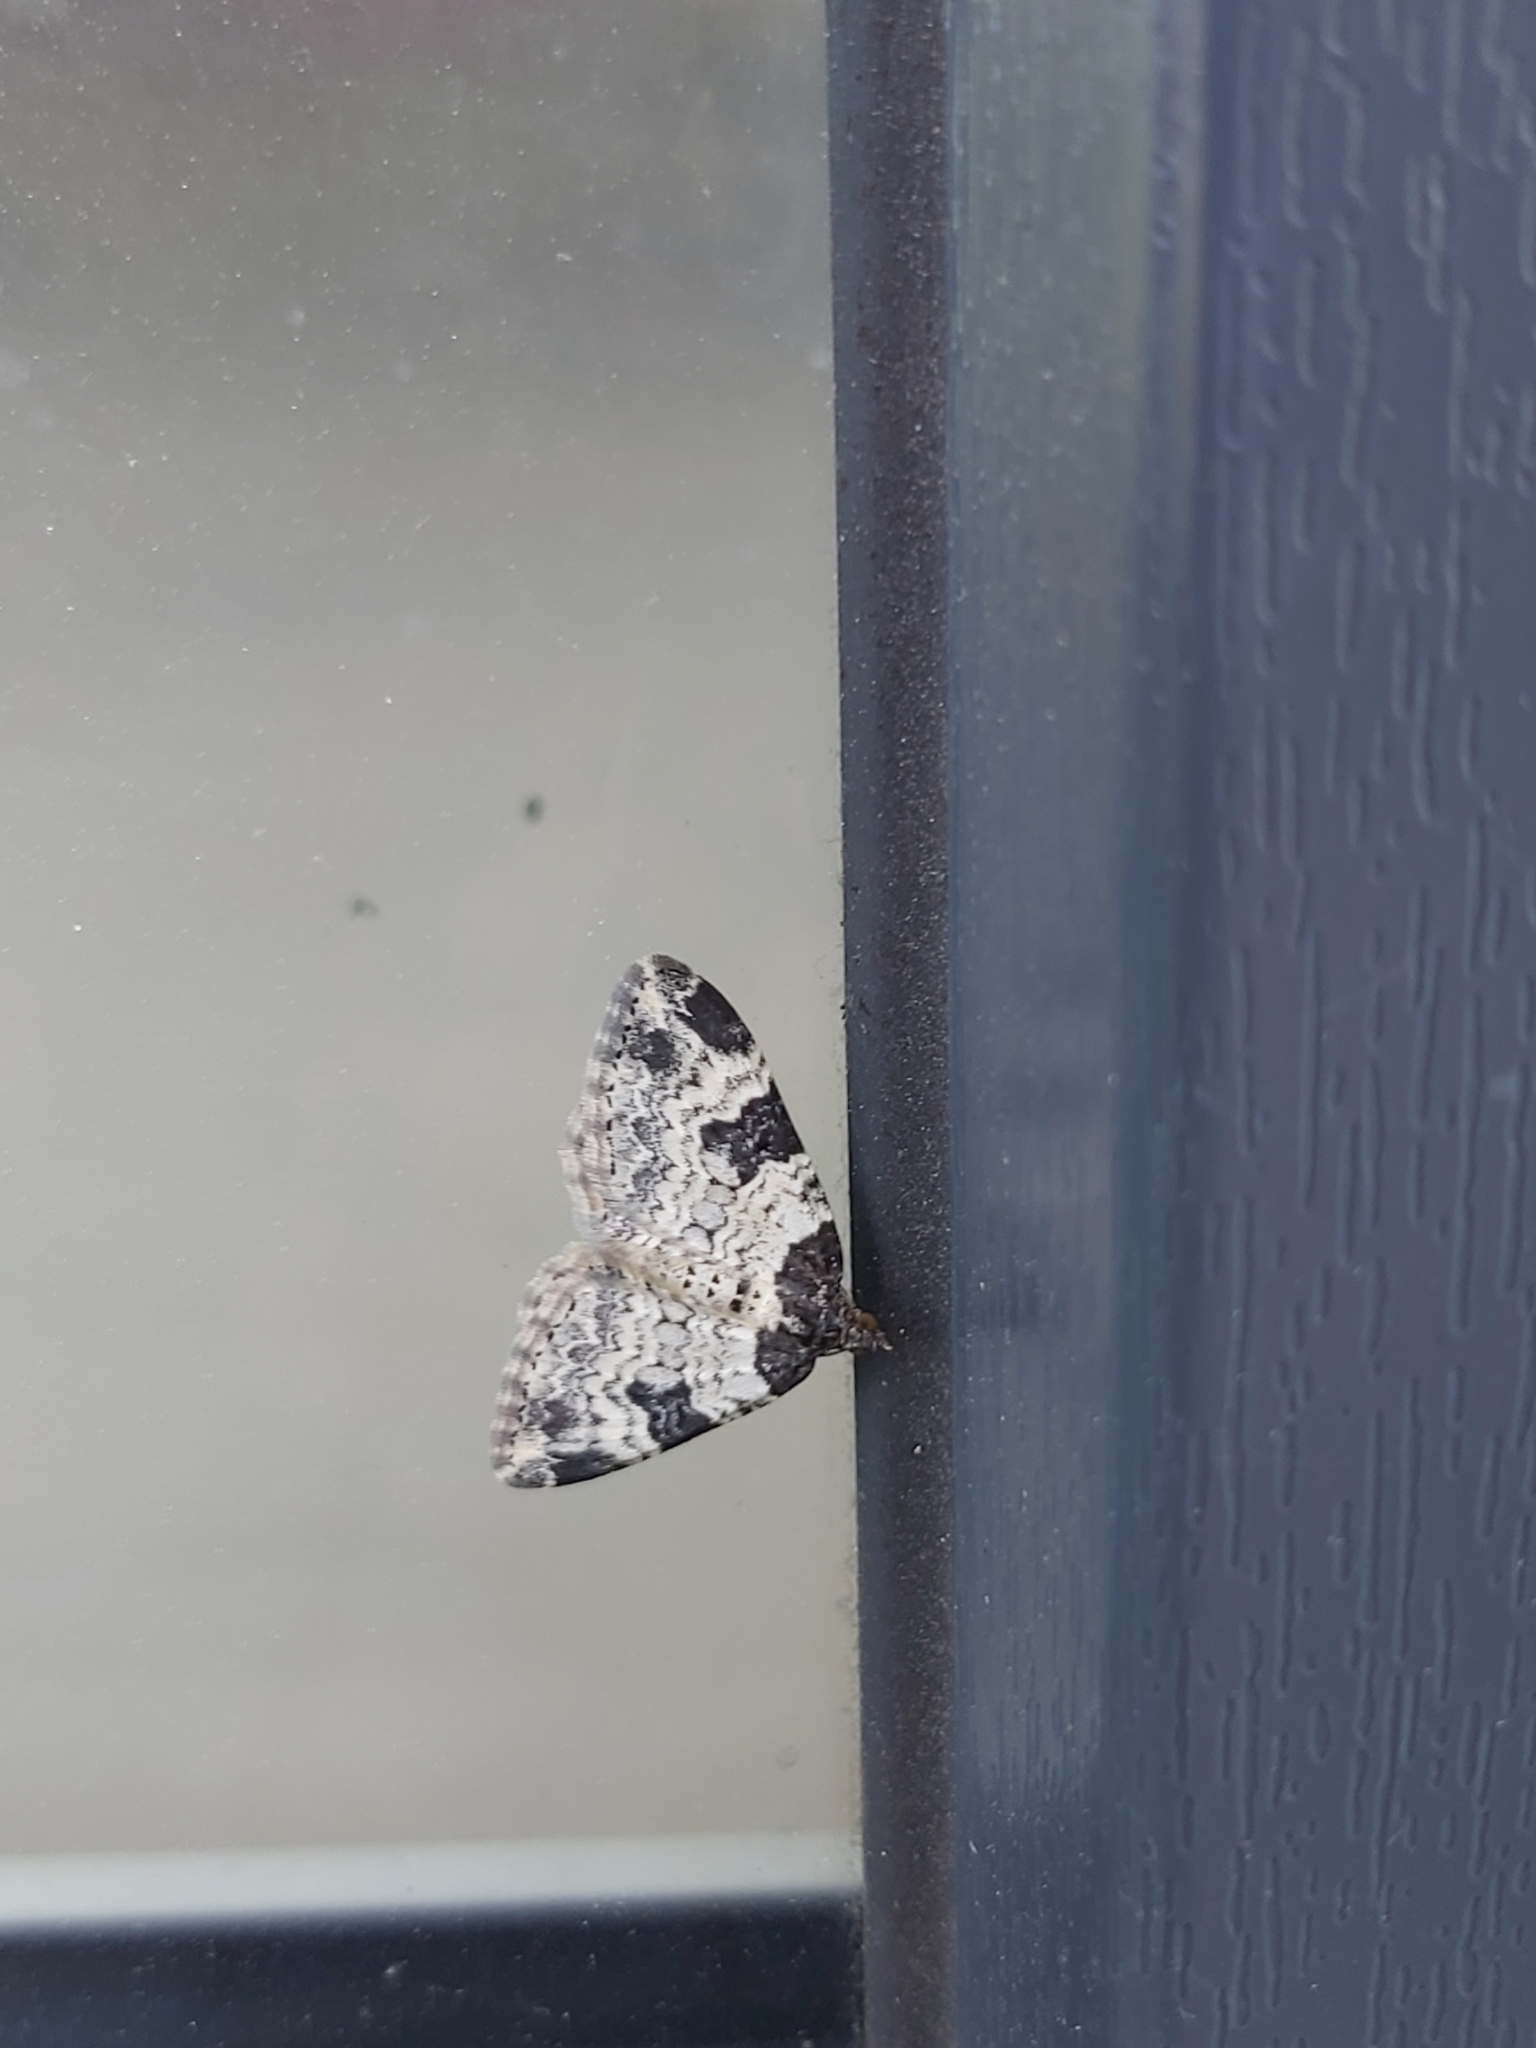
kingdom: Animalia
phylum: Arthropoda
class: Insecta
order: Lepidoptera
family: Geometridae
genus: Xanthorhoe
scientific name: Xanthorhoe fluctuata
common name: Garden carpet
